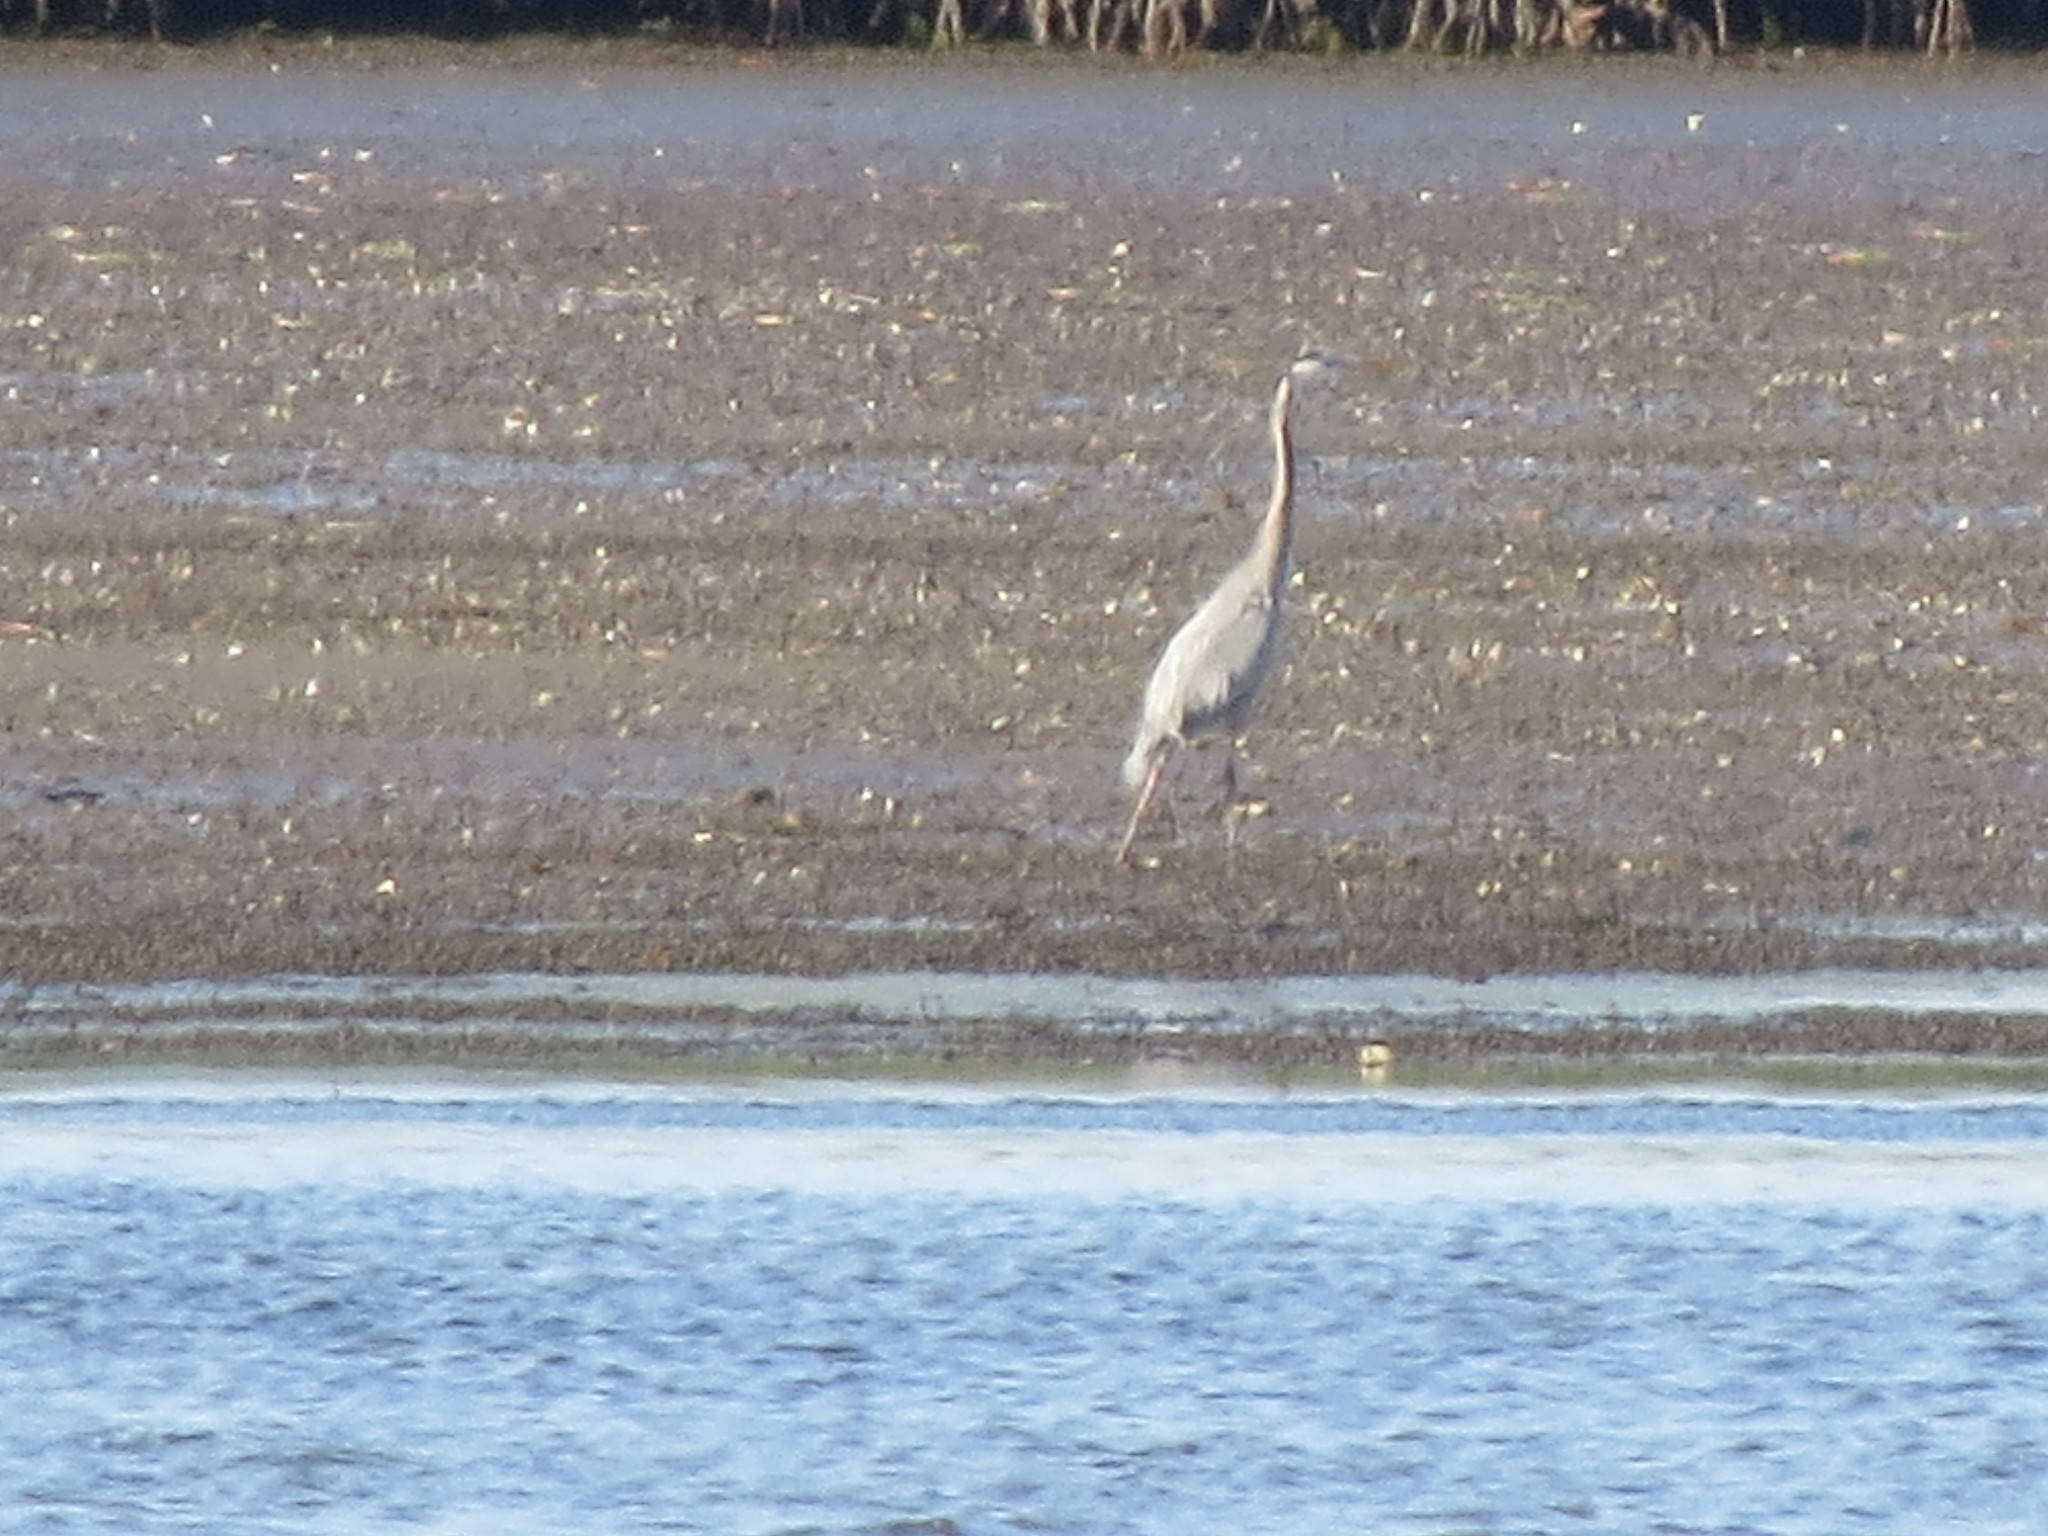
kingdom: Animalia
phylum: Chordata
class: Aves
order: Pelecaniformes
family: Ardeidae
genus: Ardea
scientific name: Ardea herodias
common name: Great blue heron
